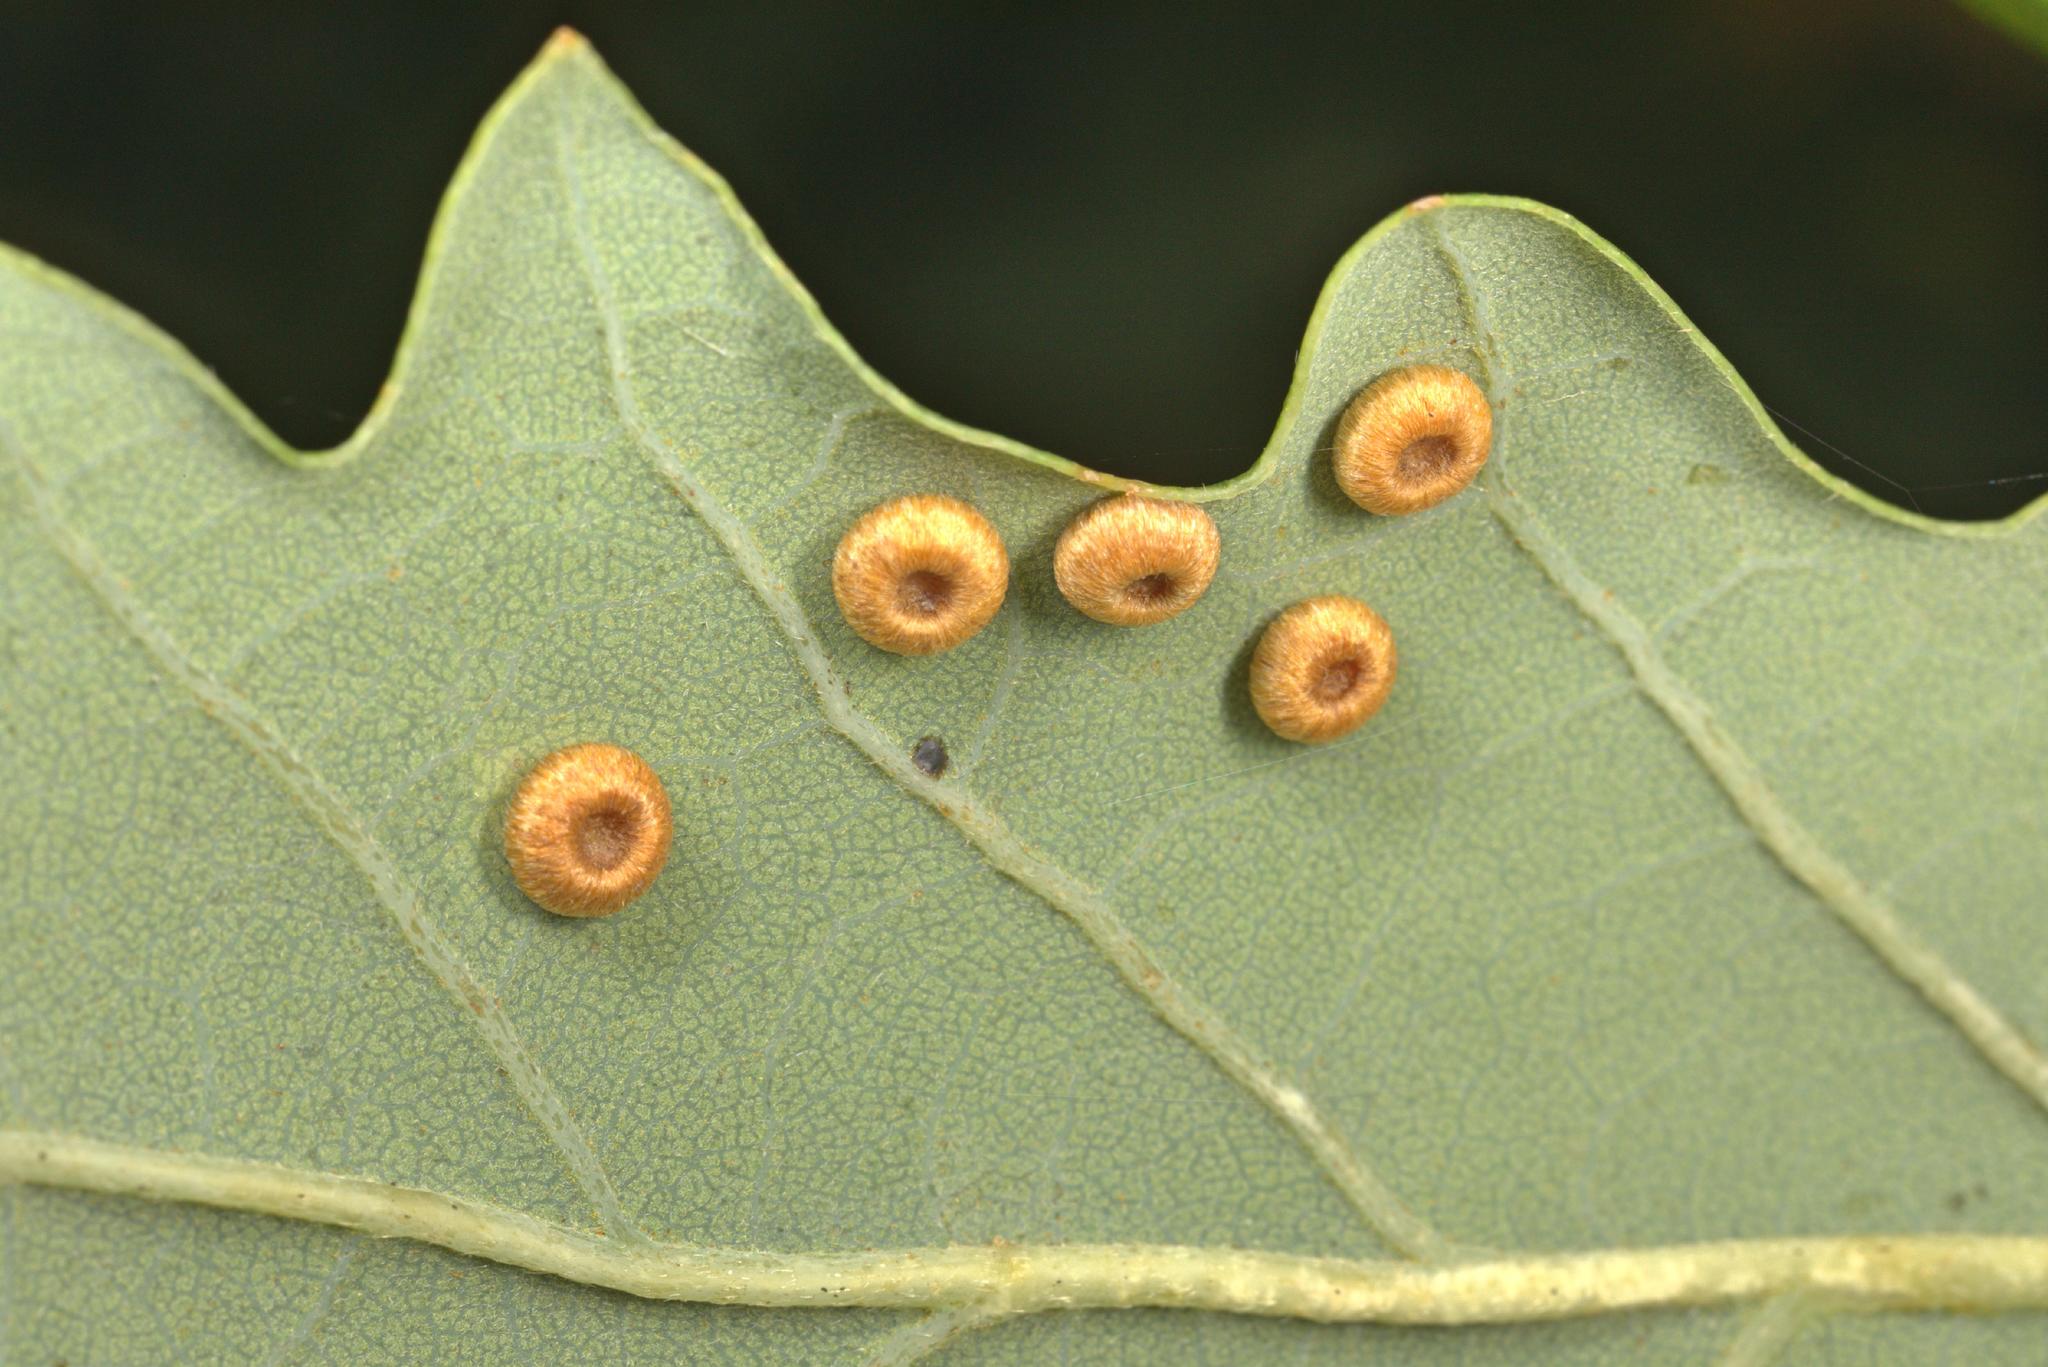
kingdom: Animalia
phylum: Arthropoda
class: Insecta
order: Hymenoptera
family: Cynipidae
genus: Neuroterus
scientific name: Neuroterus numismalis
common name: Silk-button spangle gall
